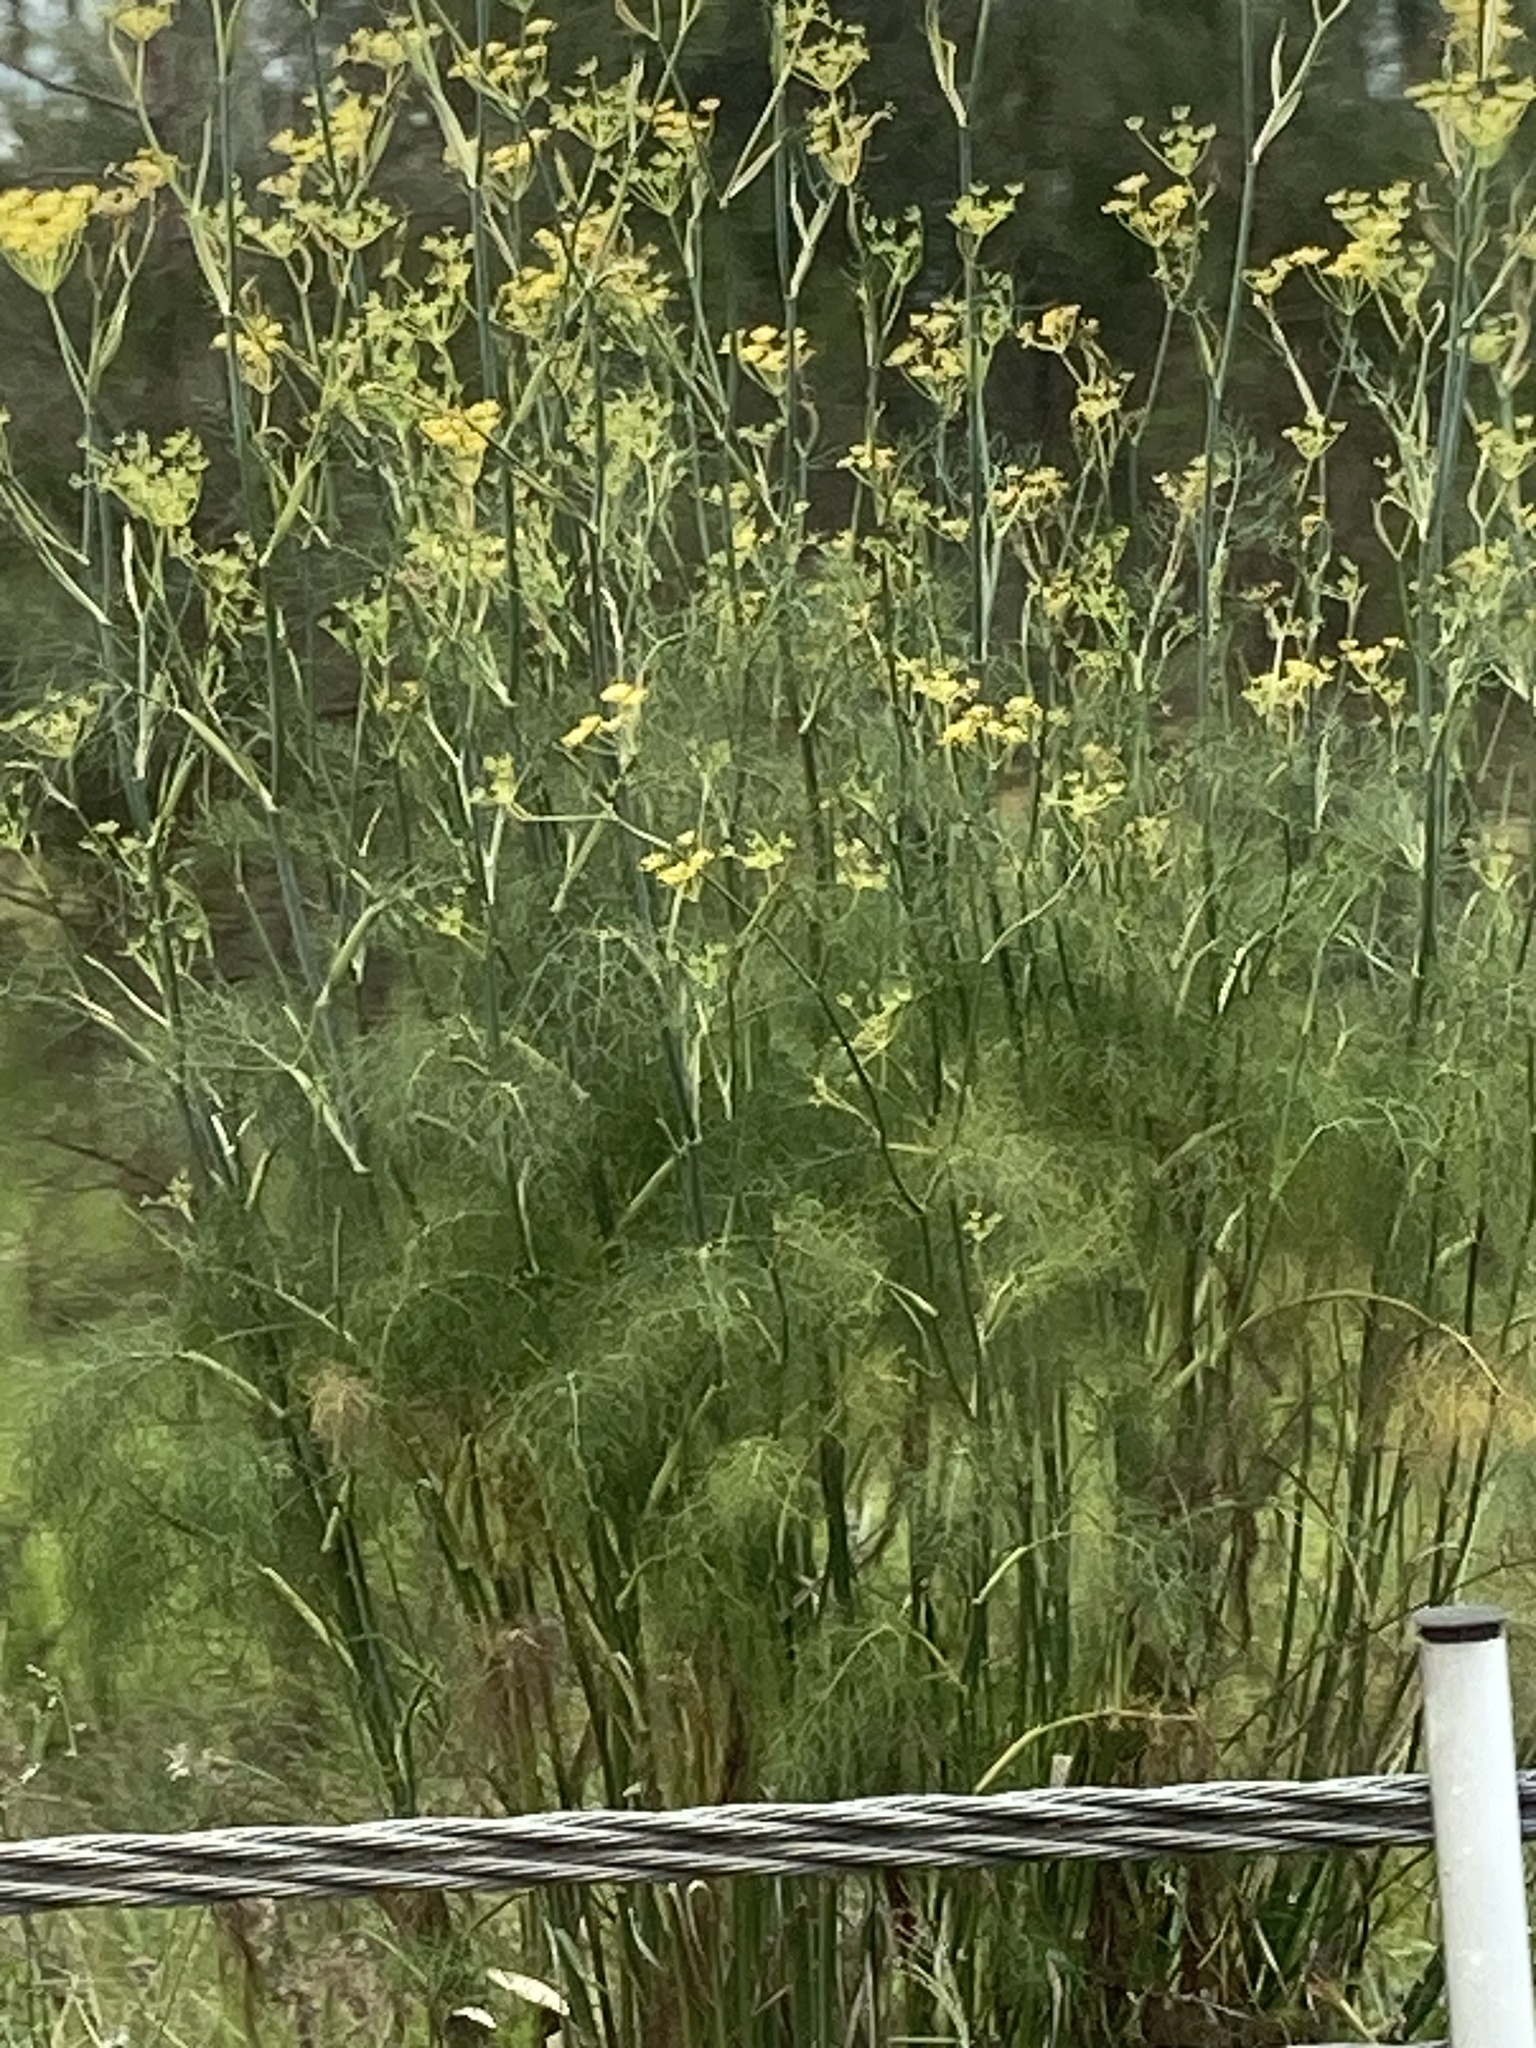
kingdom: Plantae
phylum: Tracheophyta
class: Magnoliopsida
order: Apiales
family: Apiaceae
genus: Foeniculum
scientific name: Foeniculum vulgare
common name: Fennel
